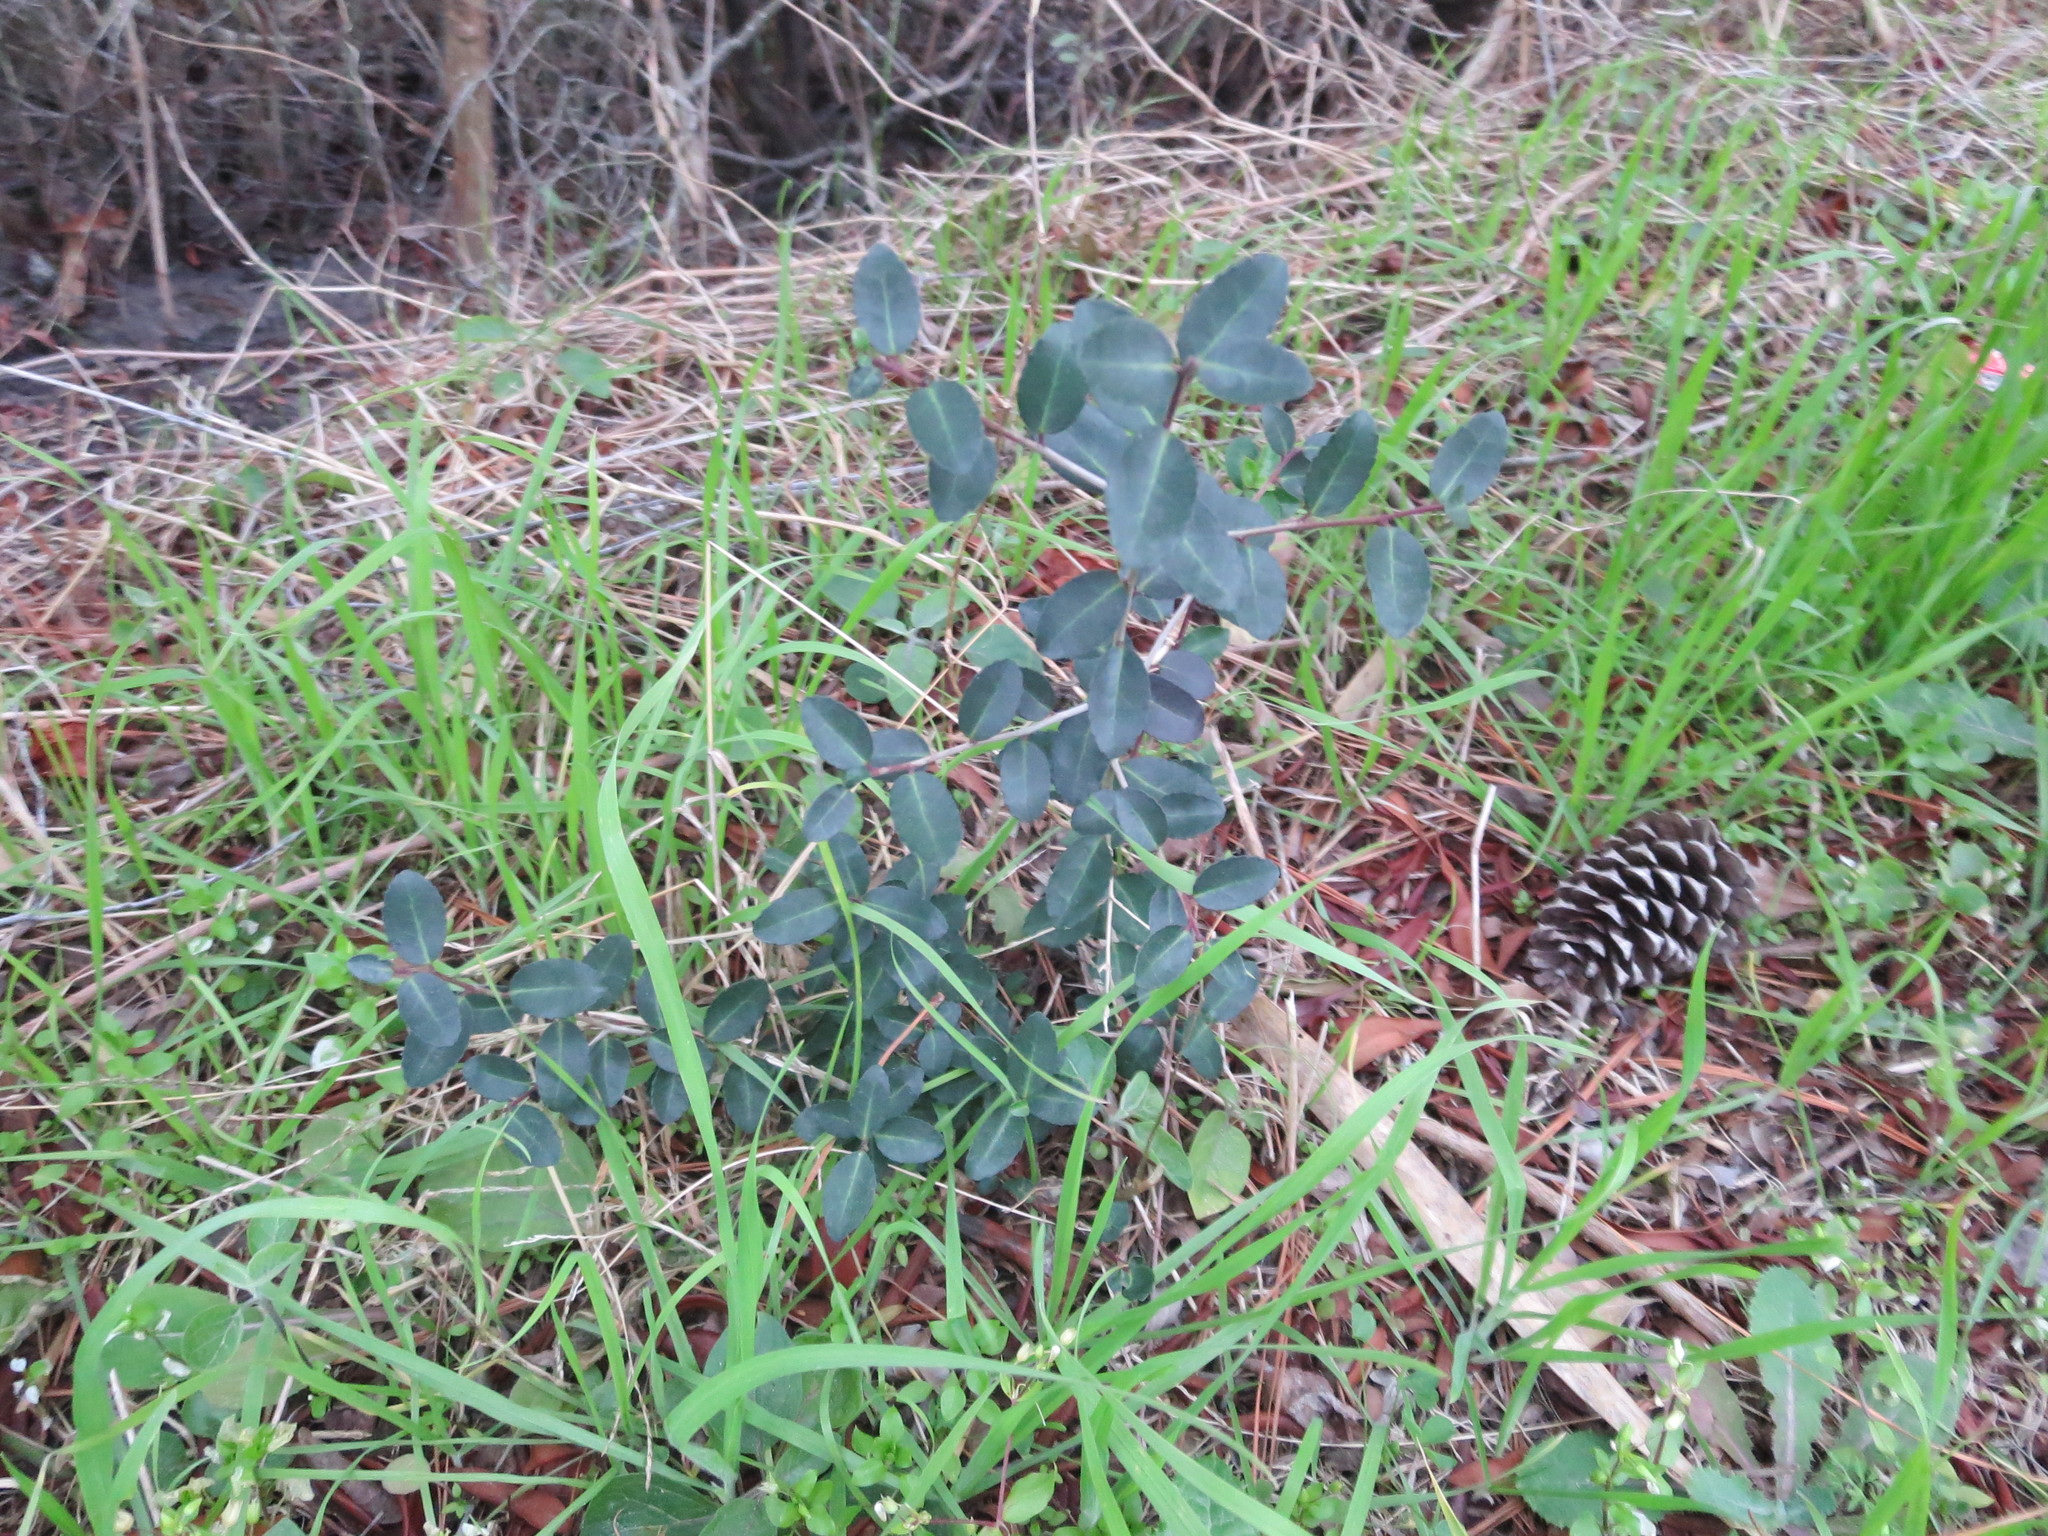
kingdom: Plantae
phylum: Tracheophyta
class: Magnoliopsida
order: Aquifoliales
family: Aquifoliaceae
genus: Ilex
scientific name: Ilex vomitoria
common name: Yaupon holly
